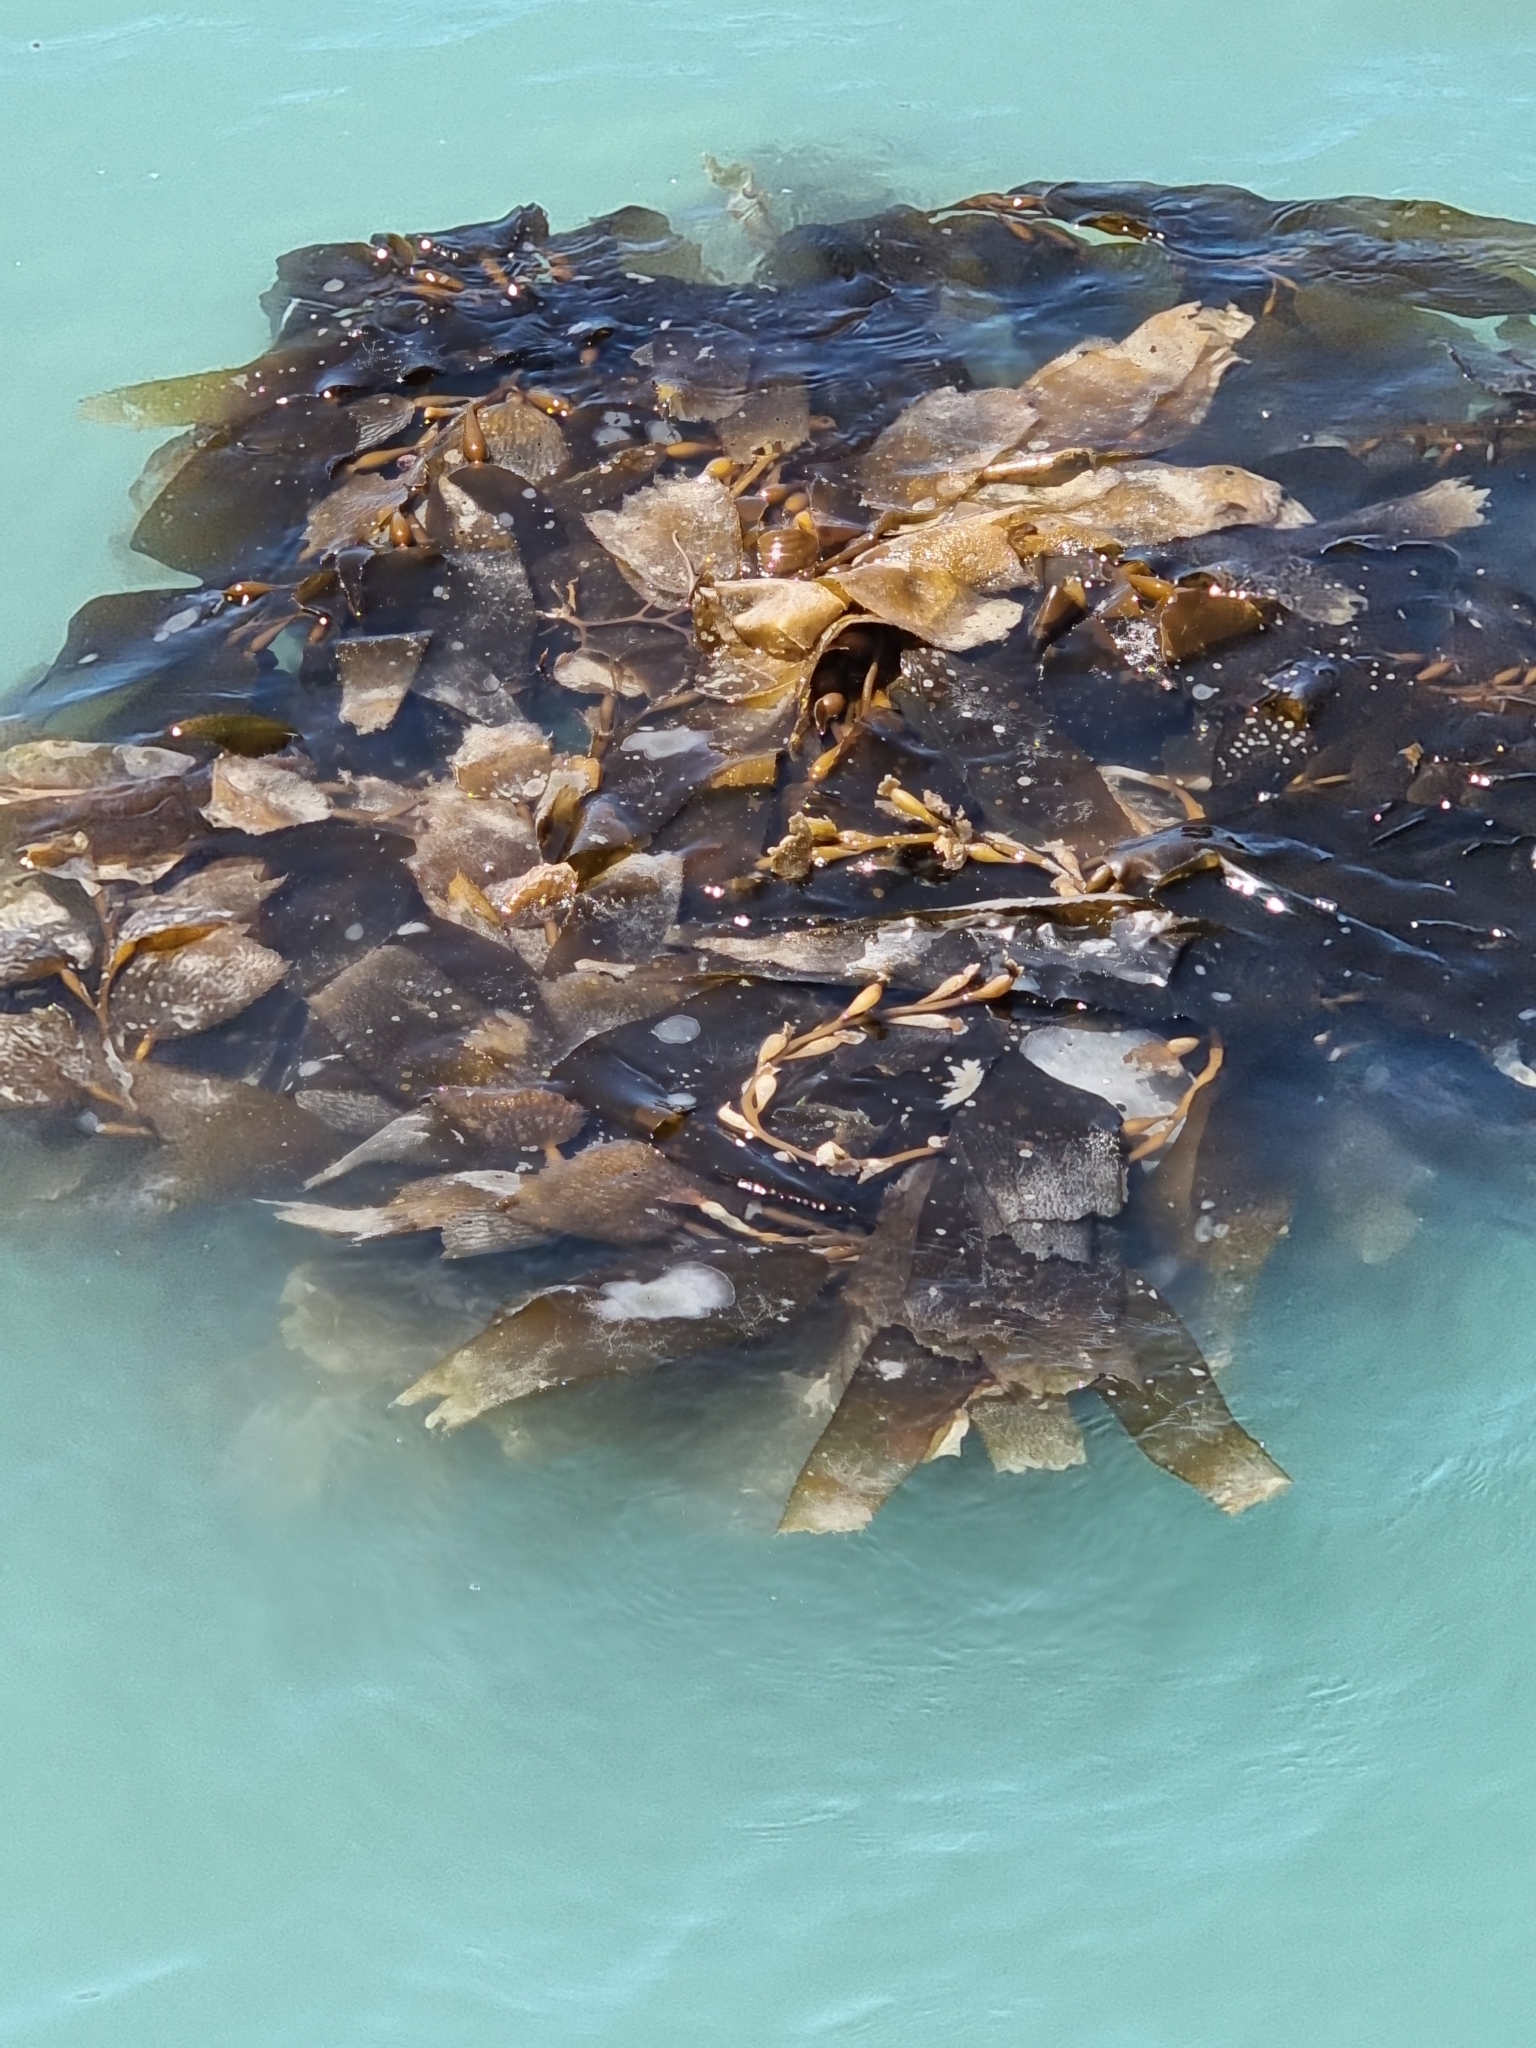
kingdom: Chromista
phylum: Ochrophyta
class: Phaeophyceae
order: Laminariales
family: Laminariaceae
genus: Macrocystis
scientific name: Macrocystis pyrifera
